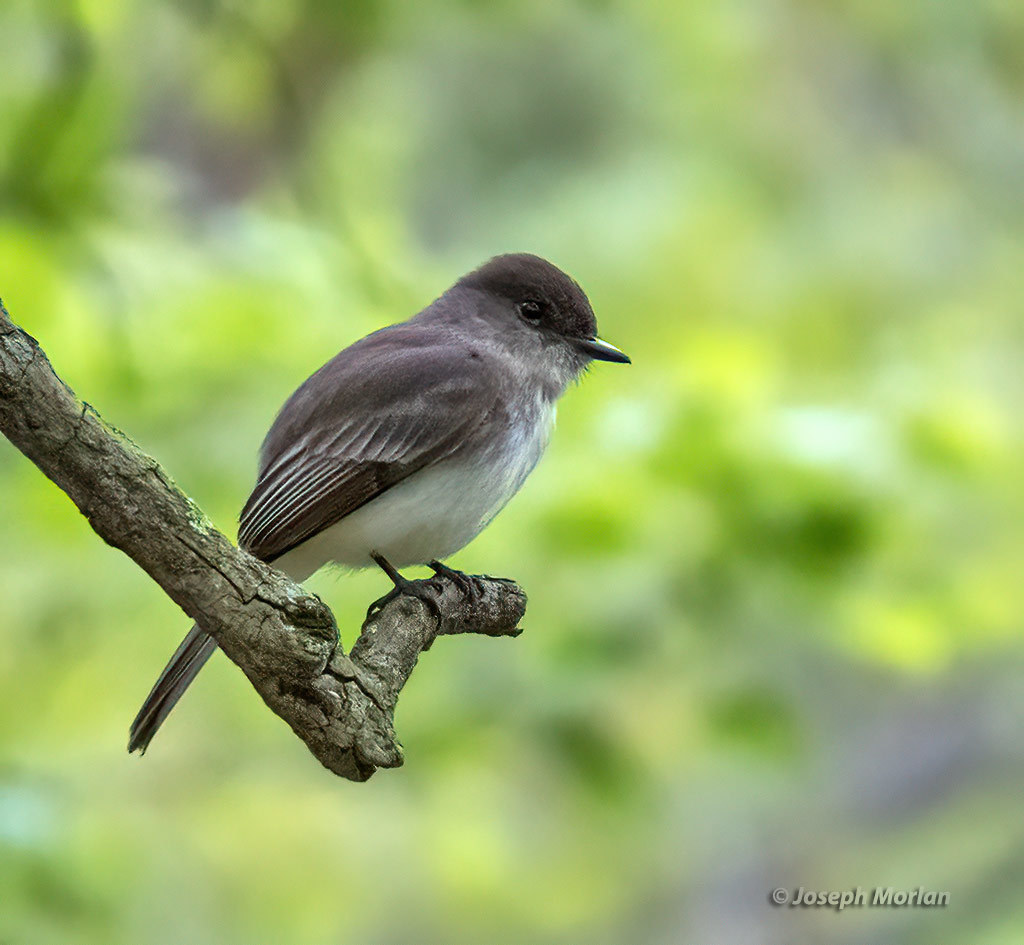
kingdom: Animalia
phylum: Chordata
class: Aves
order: Passeriformes
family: Tyrannidae
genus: Sayornis
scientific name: Sayornis phoebe
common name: Eastern phoebe
